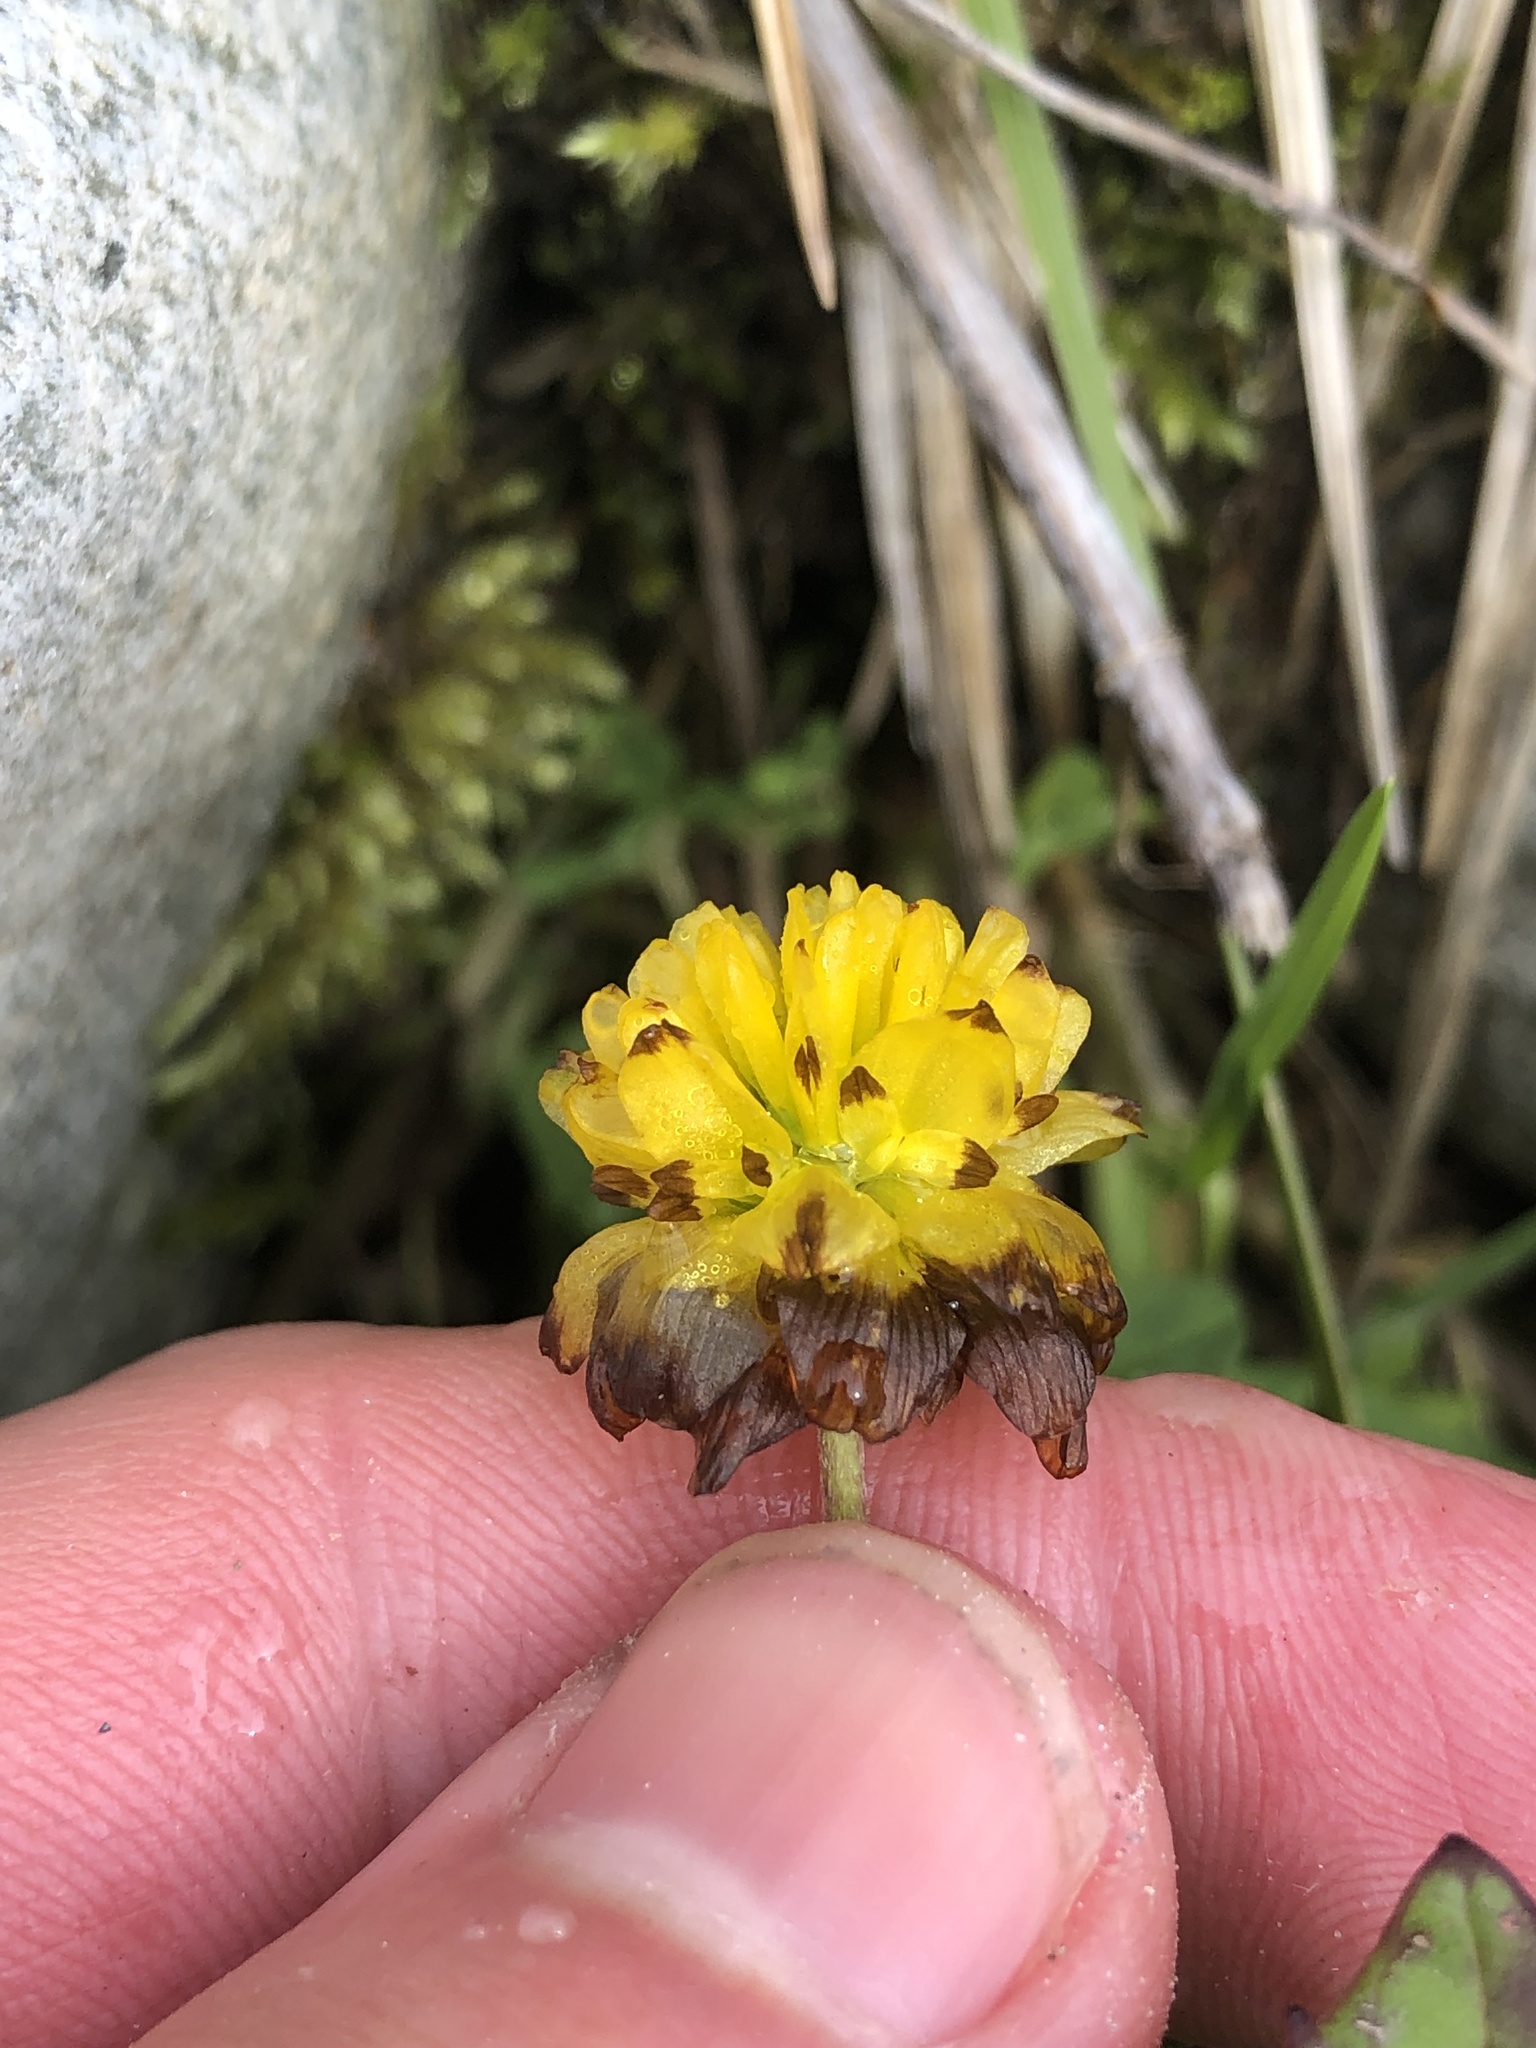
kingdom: Plantae
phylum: Tracheophyta
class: Magnoliopsida
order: Fabales
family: Fabaceae
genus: Trifolium
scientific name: Trifolium badium
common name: Brown clover
